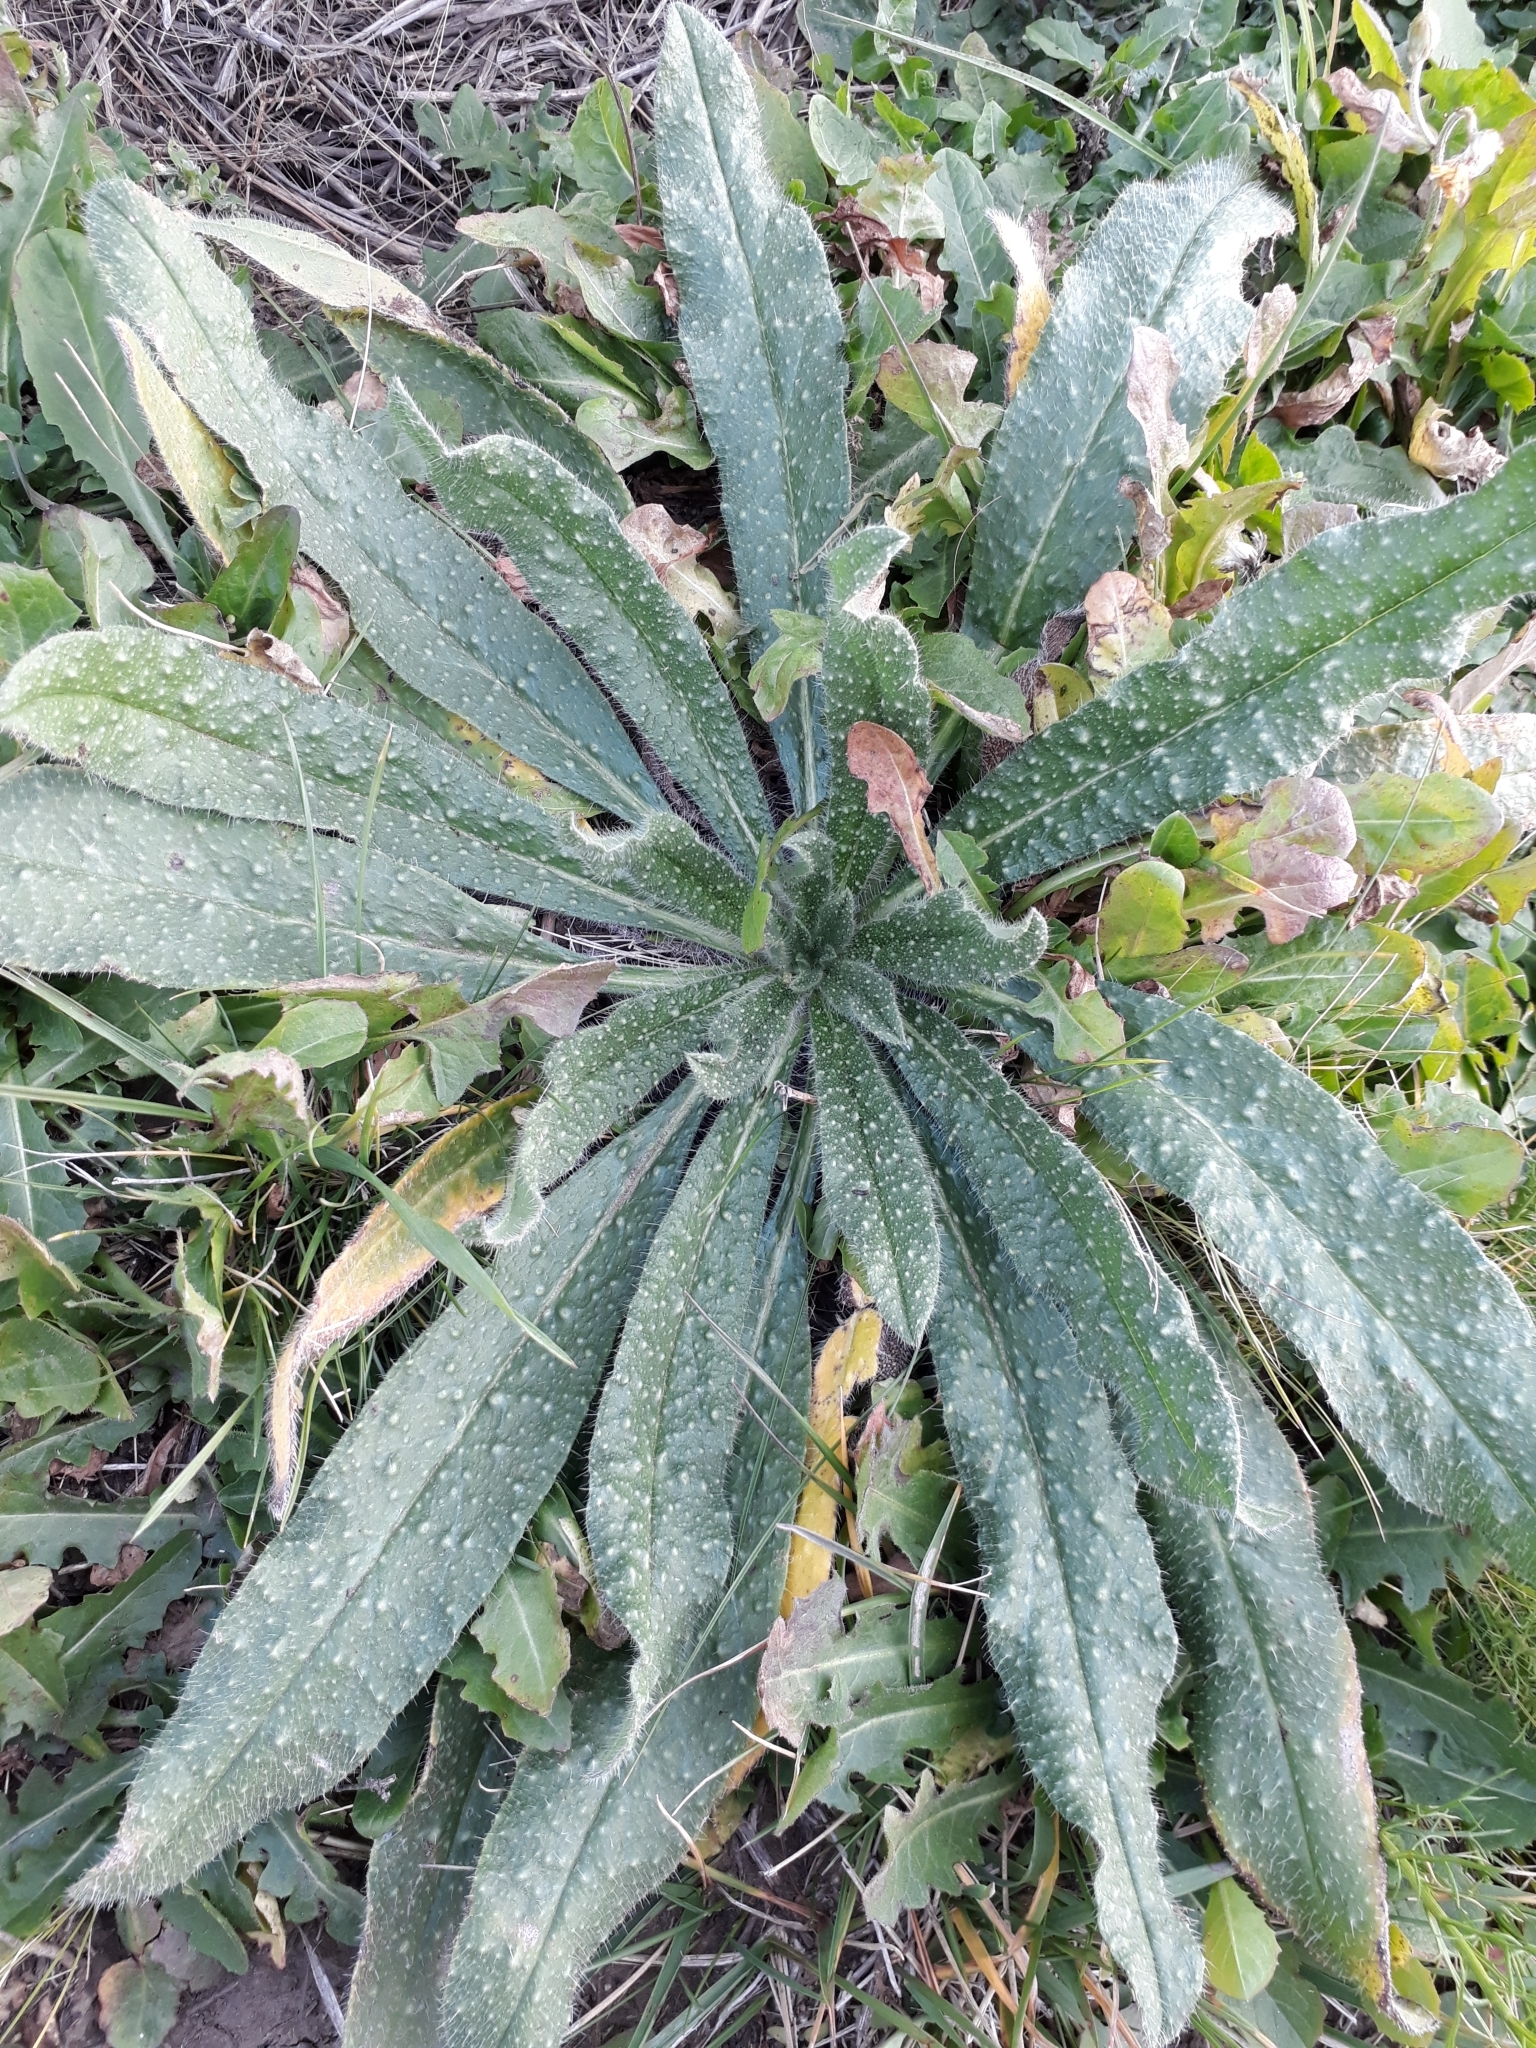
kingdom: Plantae
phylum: Tracheophyta
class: Magnoliopsida
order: Asterales
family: Asteraceae
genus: Helminthotheca
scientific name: Helminthotheca echioides
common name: Ox-tongue
